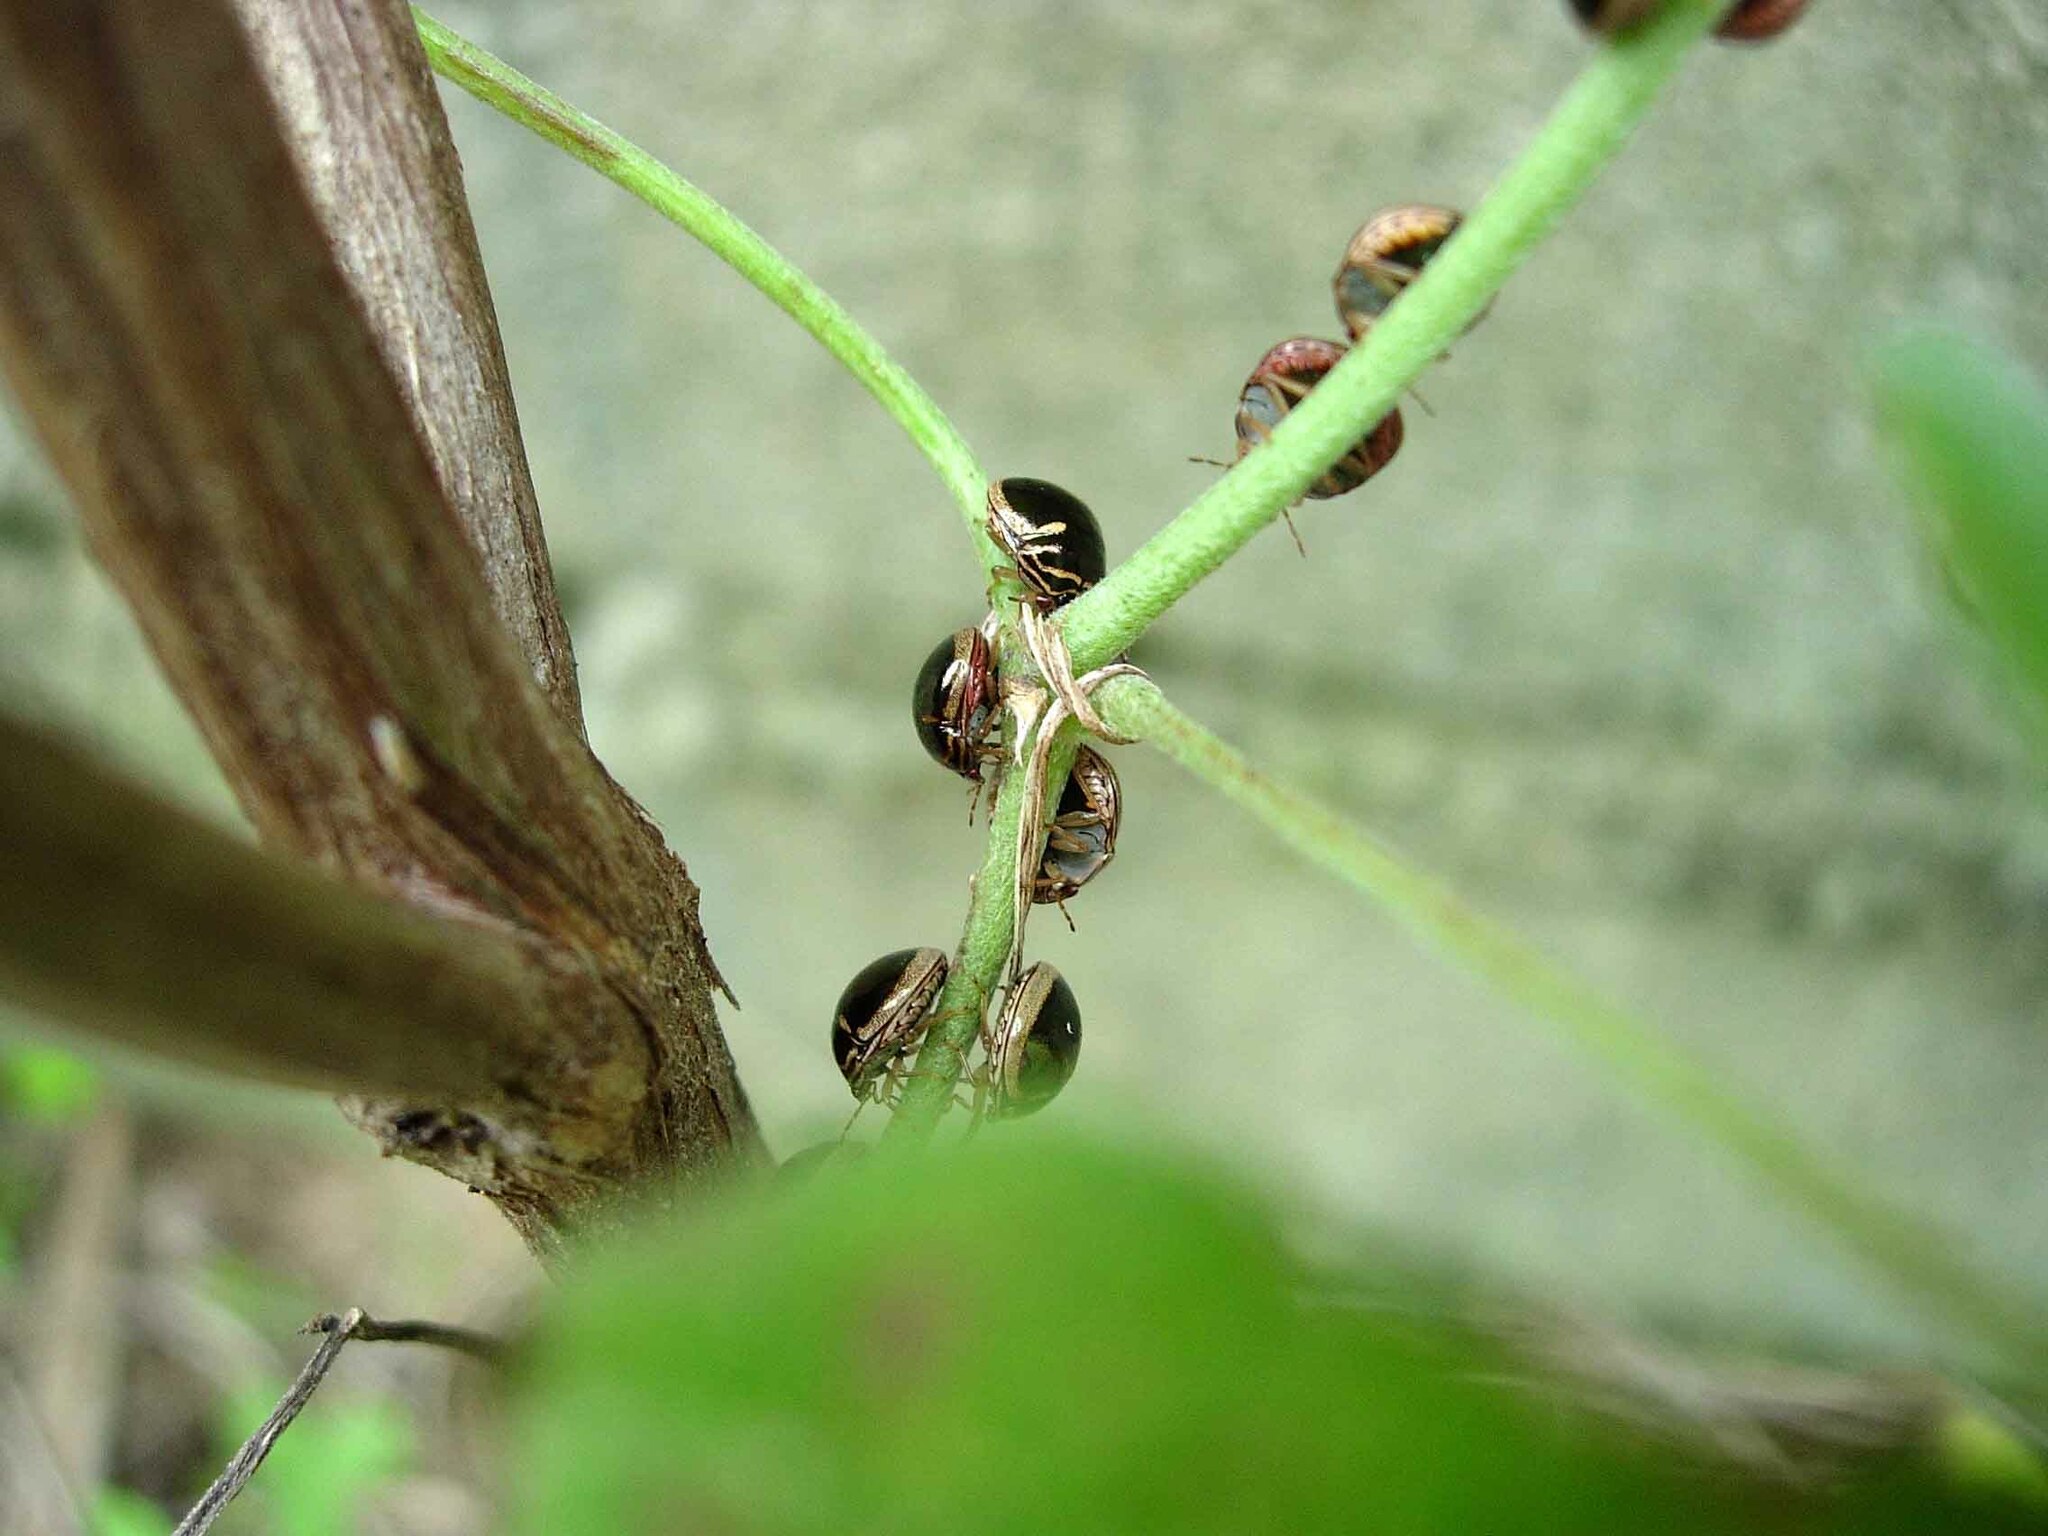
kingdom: Animalia
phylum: Arthropoda
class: Insecta
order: Hemiptera
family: Plataspidae
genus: Coptosoma
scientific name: Coptosoma
